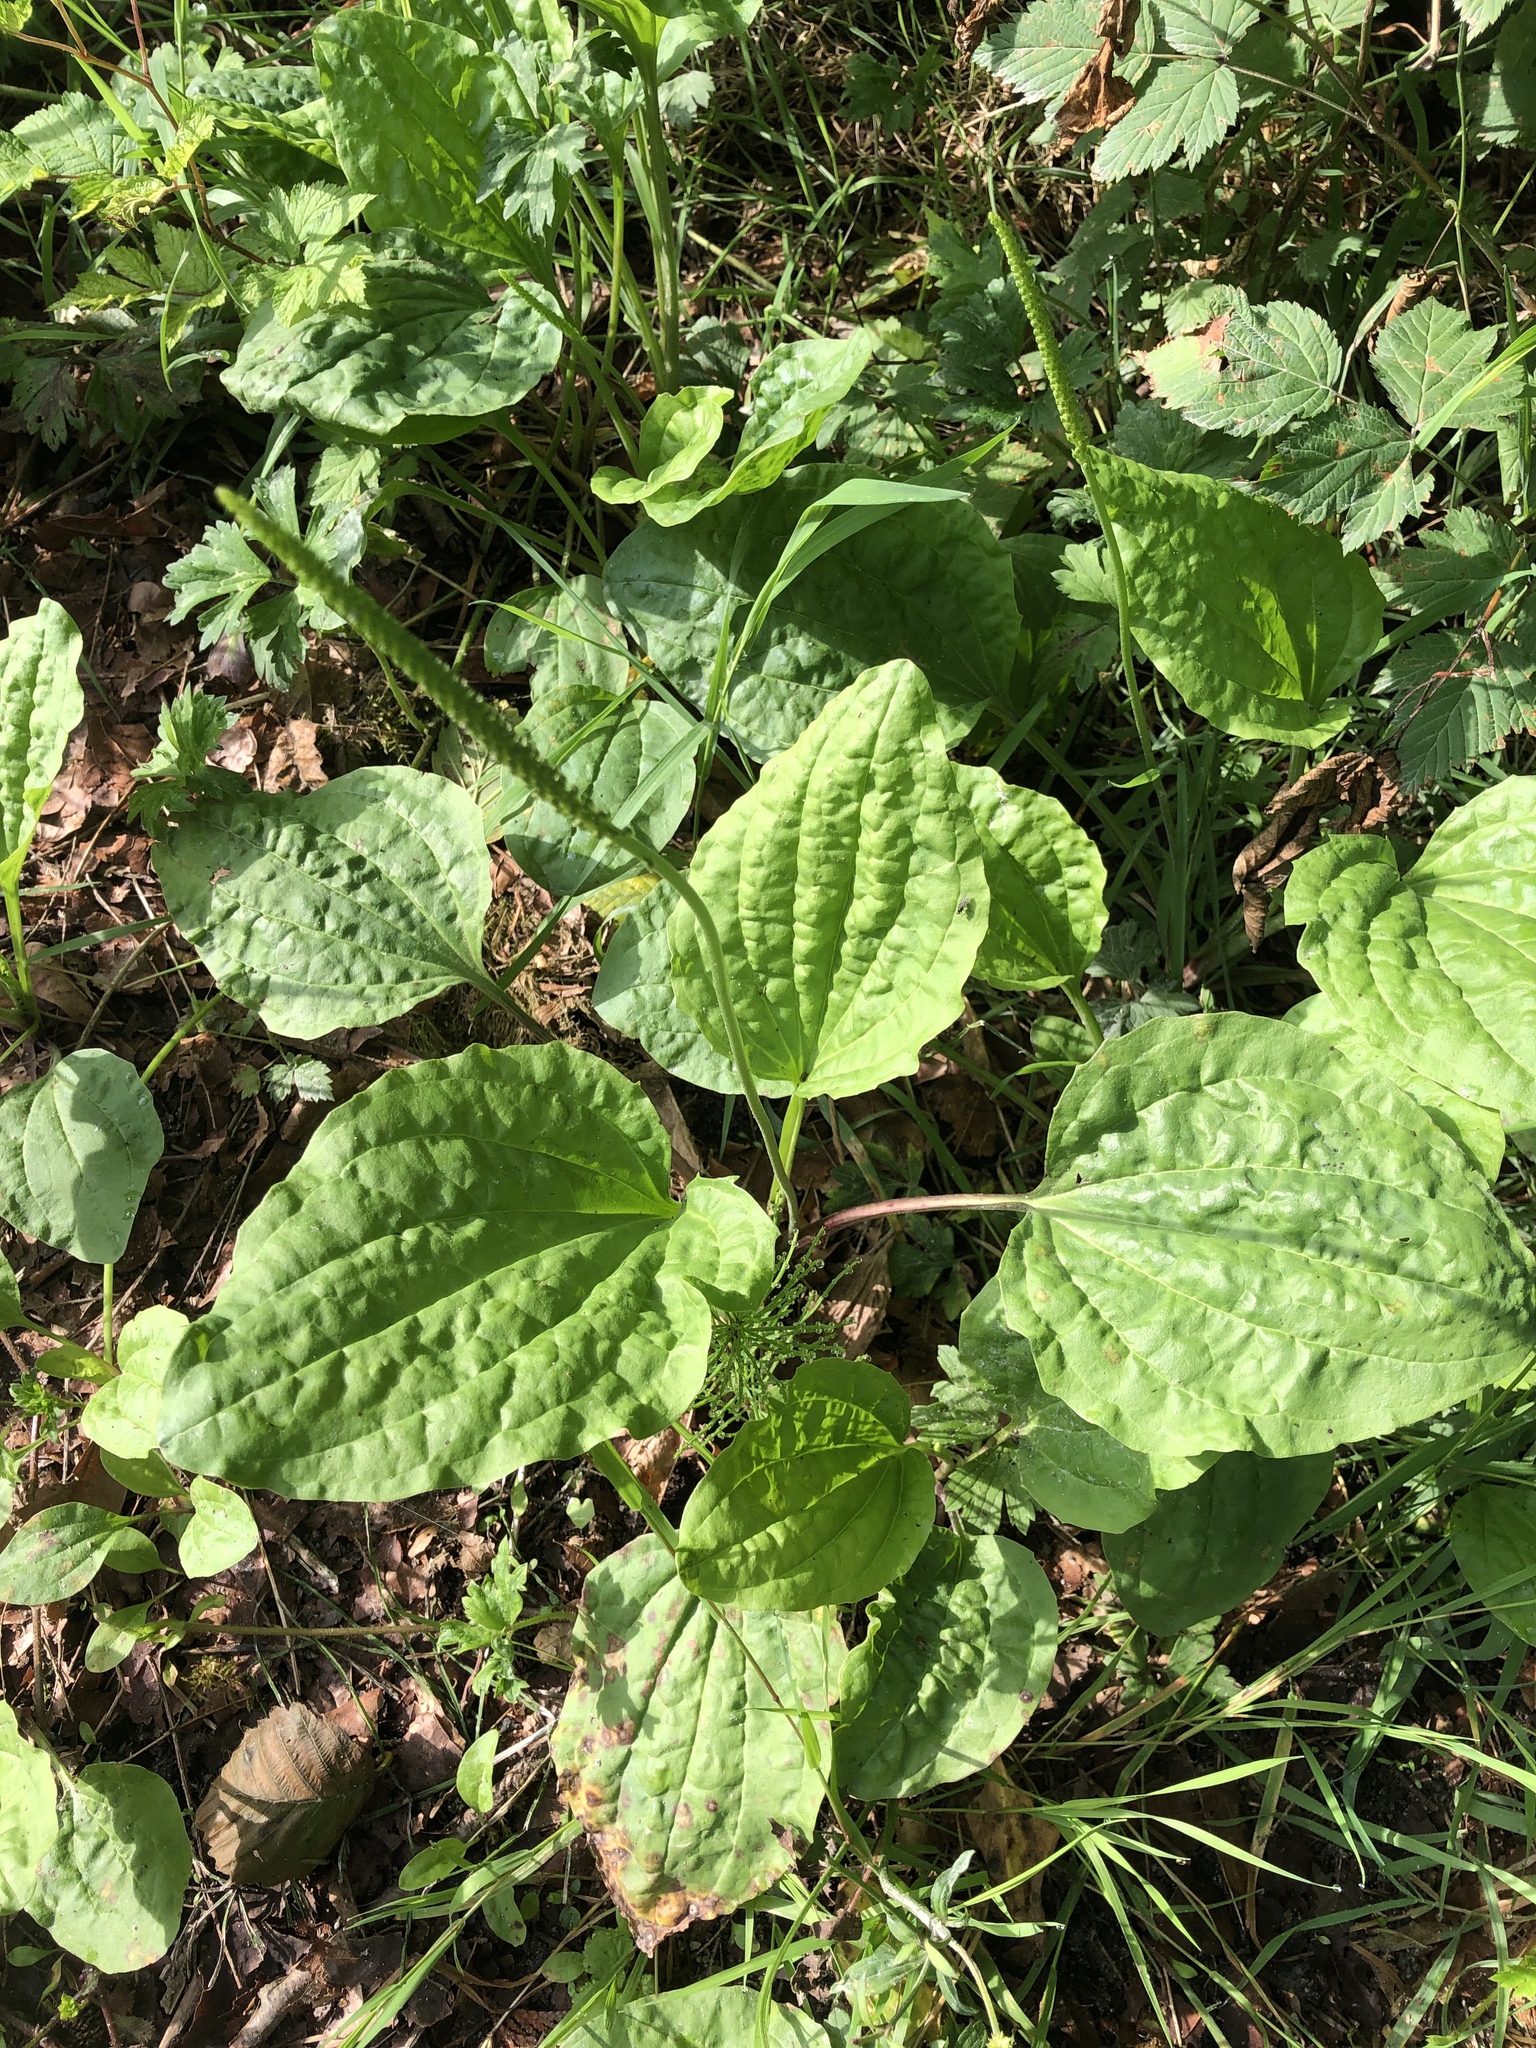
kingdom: Plantae
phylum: Tracheophyta
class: Magnoliopsida
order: Lamiales
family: Plantaginaceae
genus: Plantago
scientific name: Plantago major
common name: Common plantain
